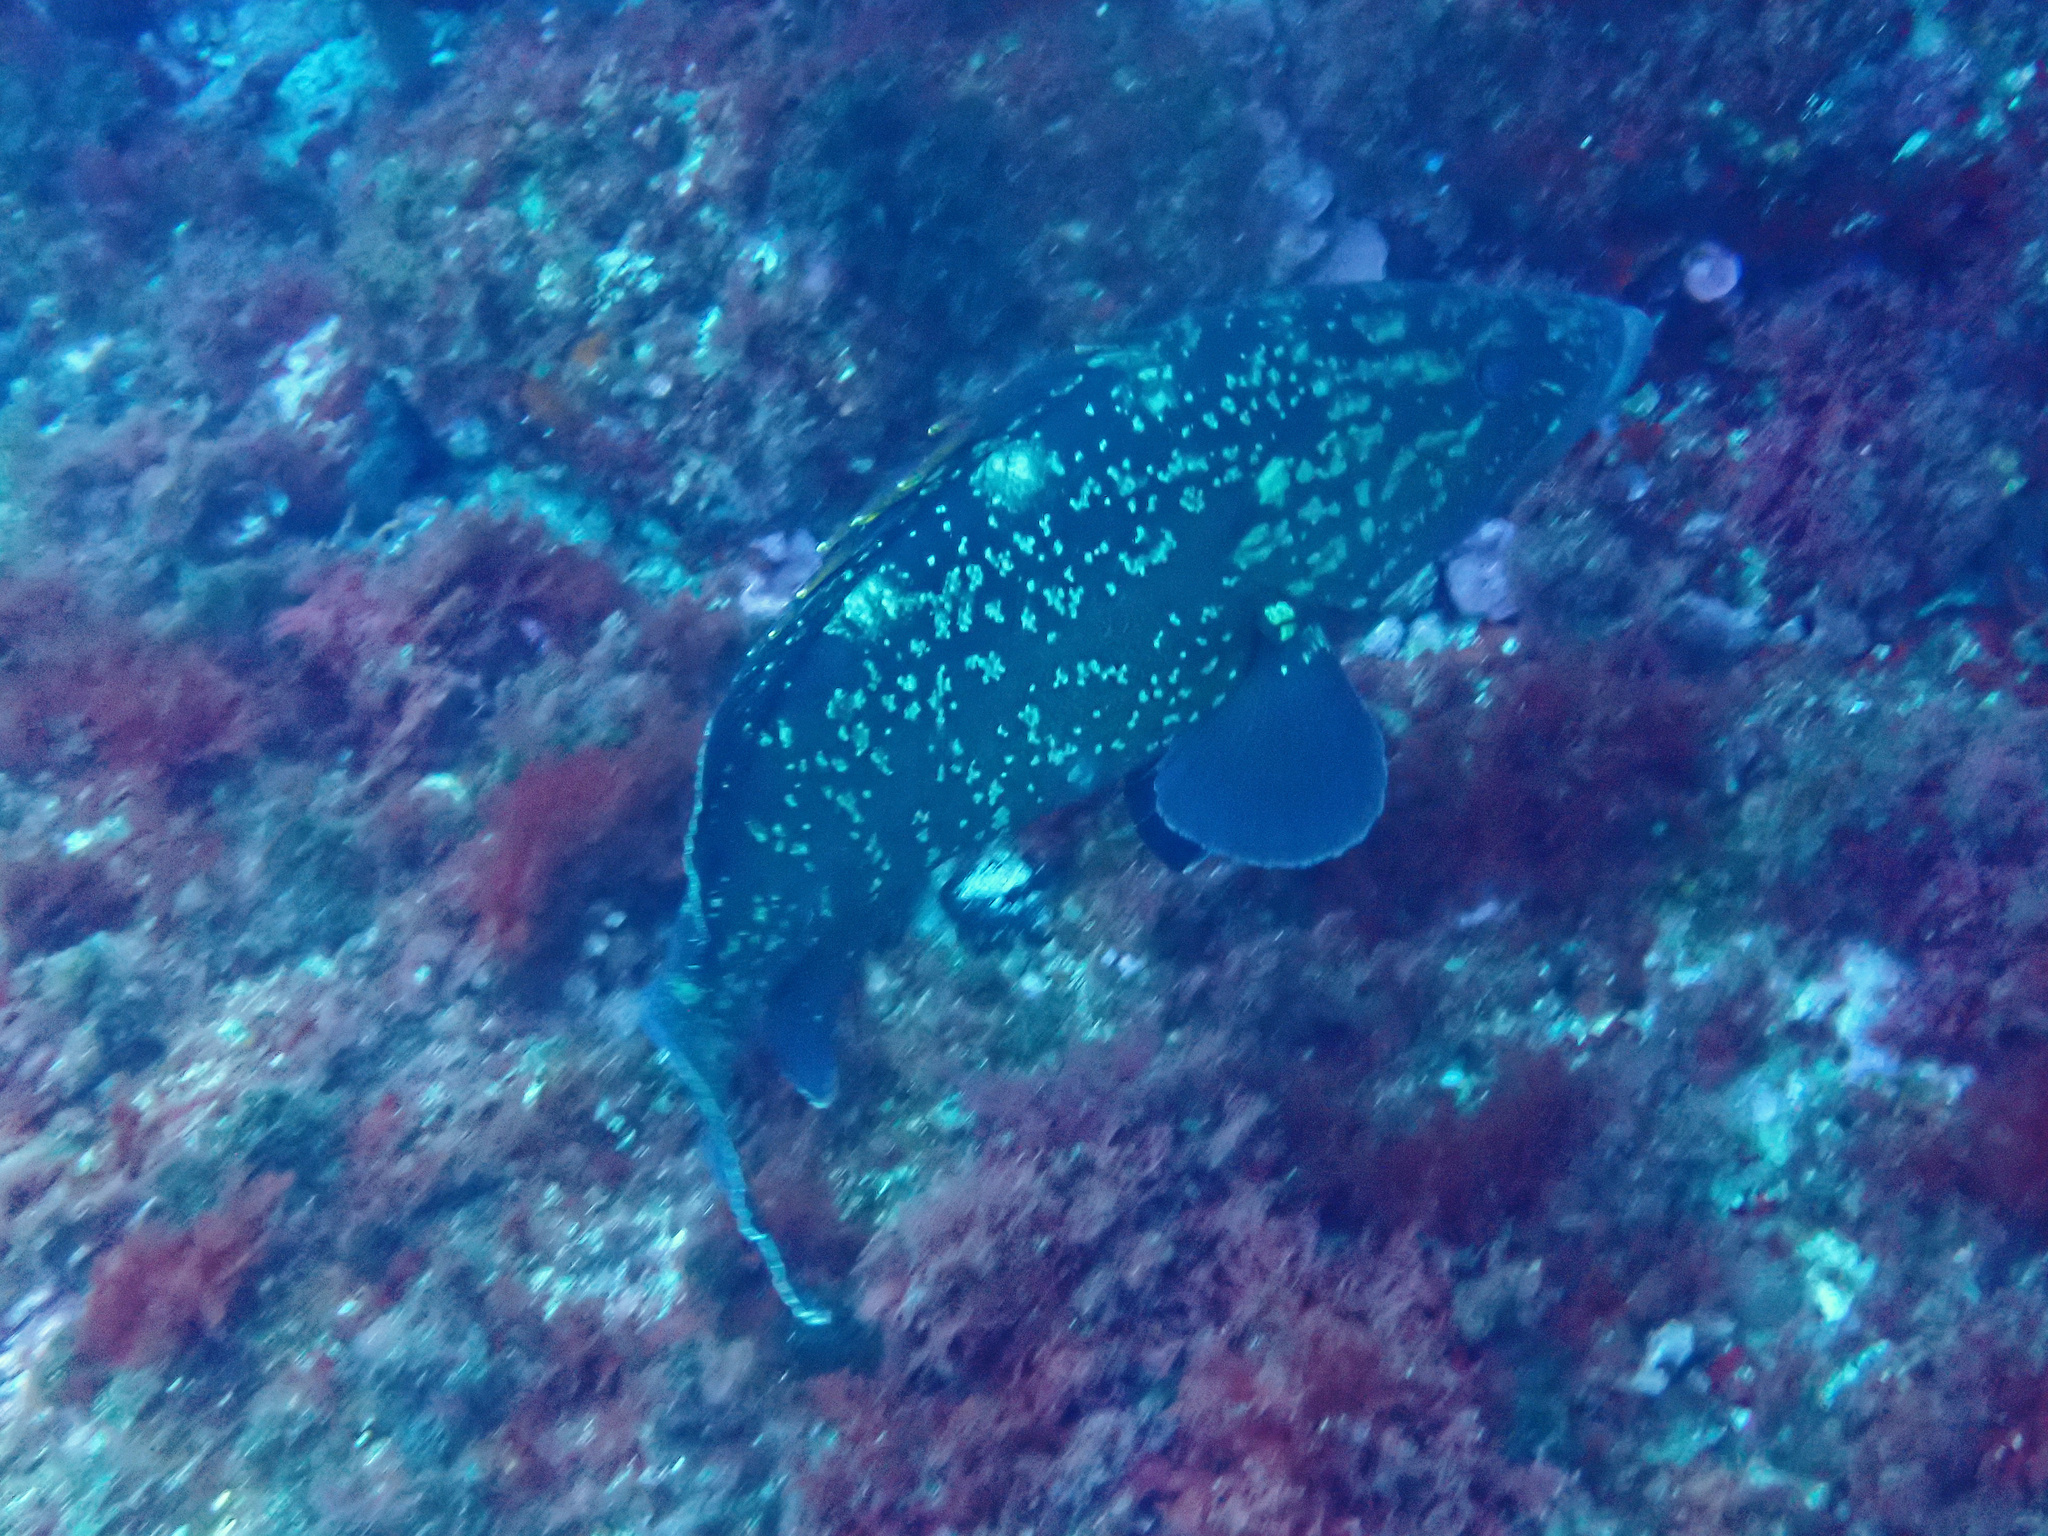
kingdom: Animalia
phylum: Chordata
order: Perciformes
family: Serranidae
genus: Epinephelus
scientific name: Epinephelus marginatus
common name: Dusky grouper
